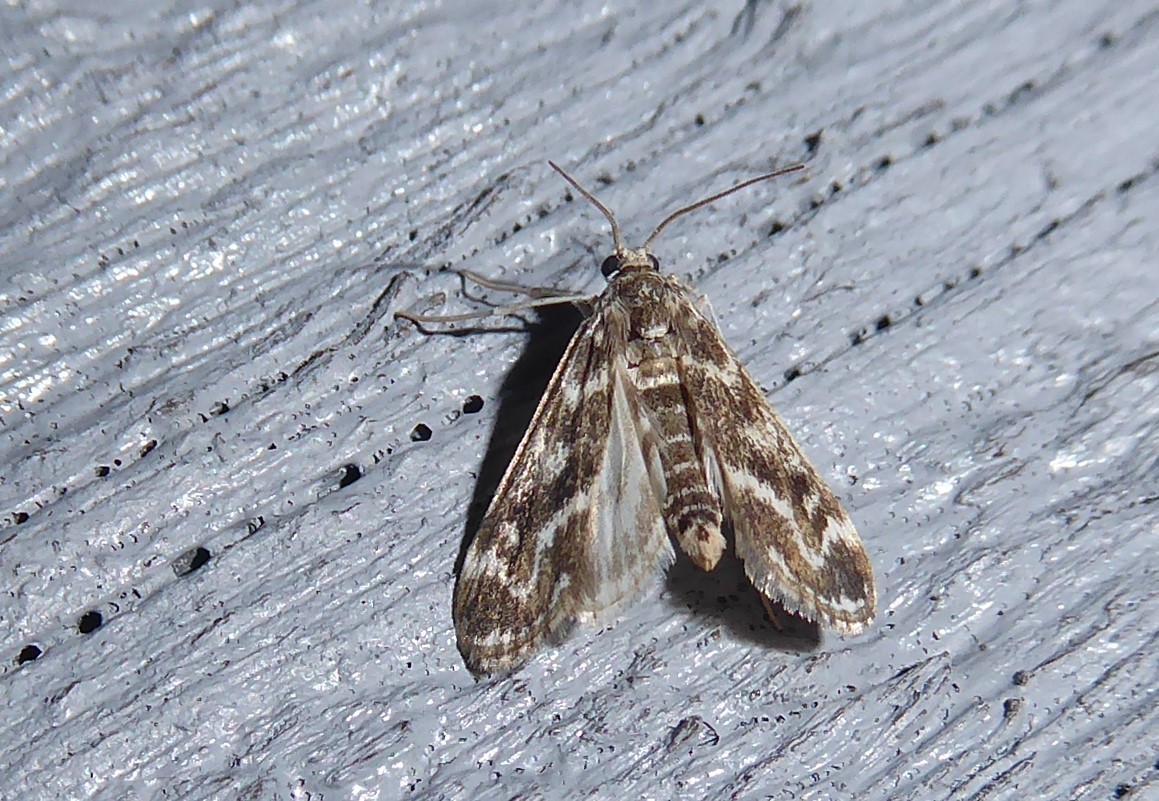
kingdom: Animalia
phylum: Arthropoda
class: Insecta
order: Lepidoptera
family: Crambidae
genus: Hygraula
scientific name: Hygraula nitens
